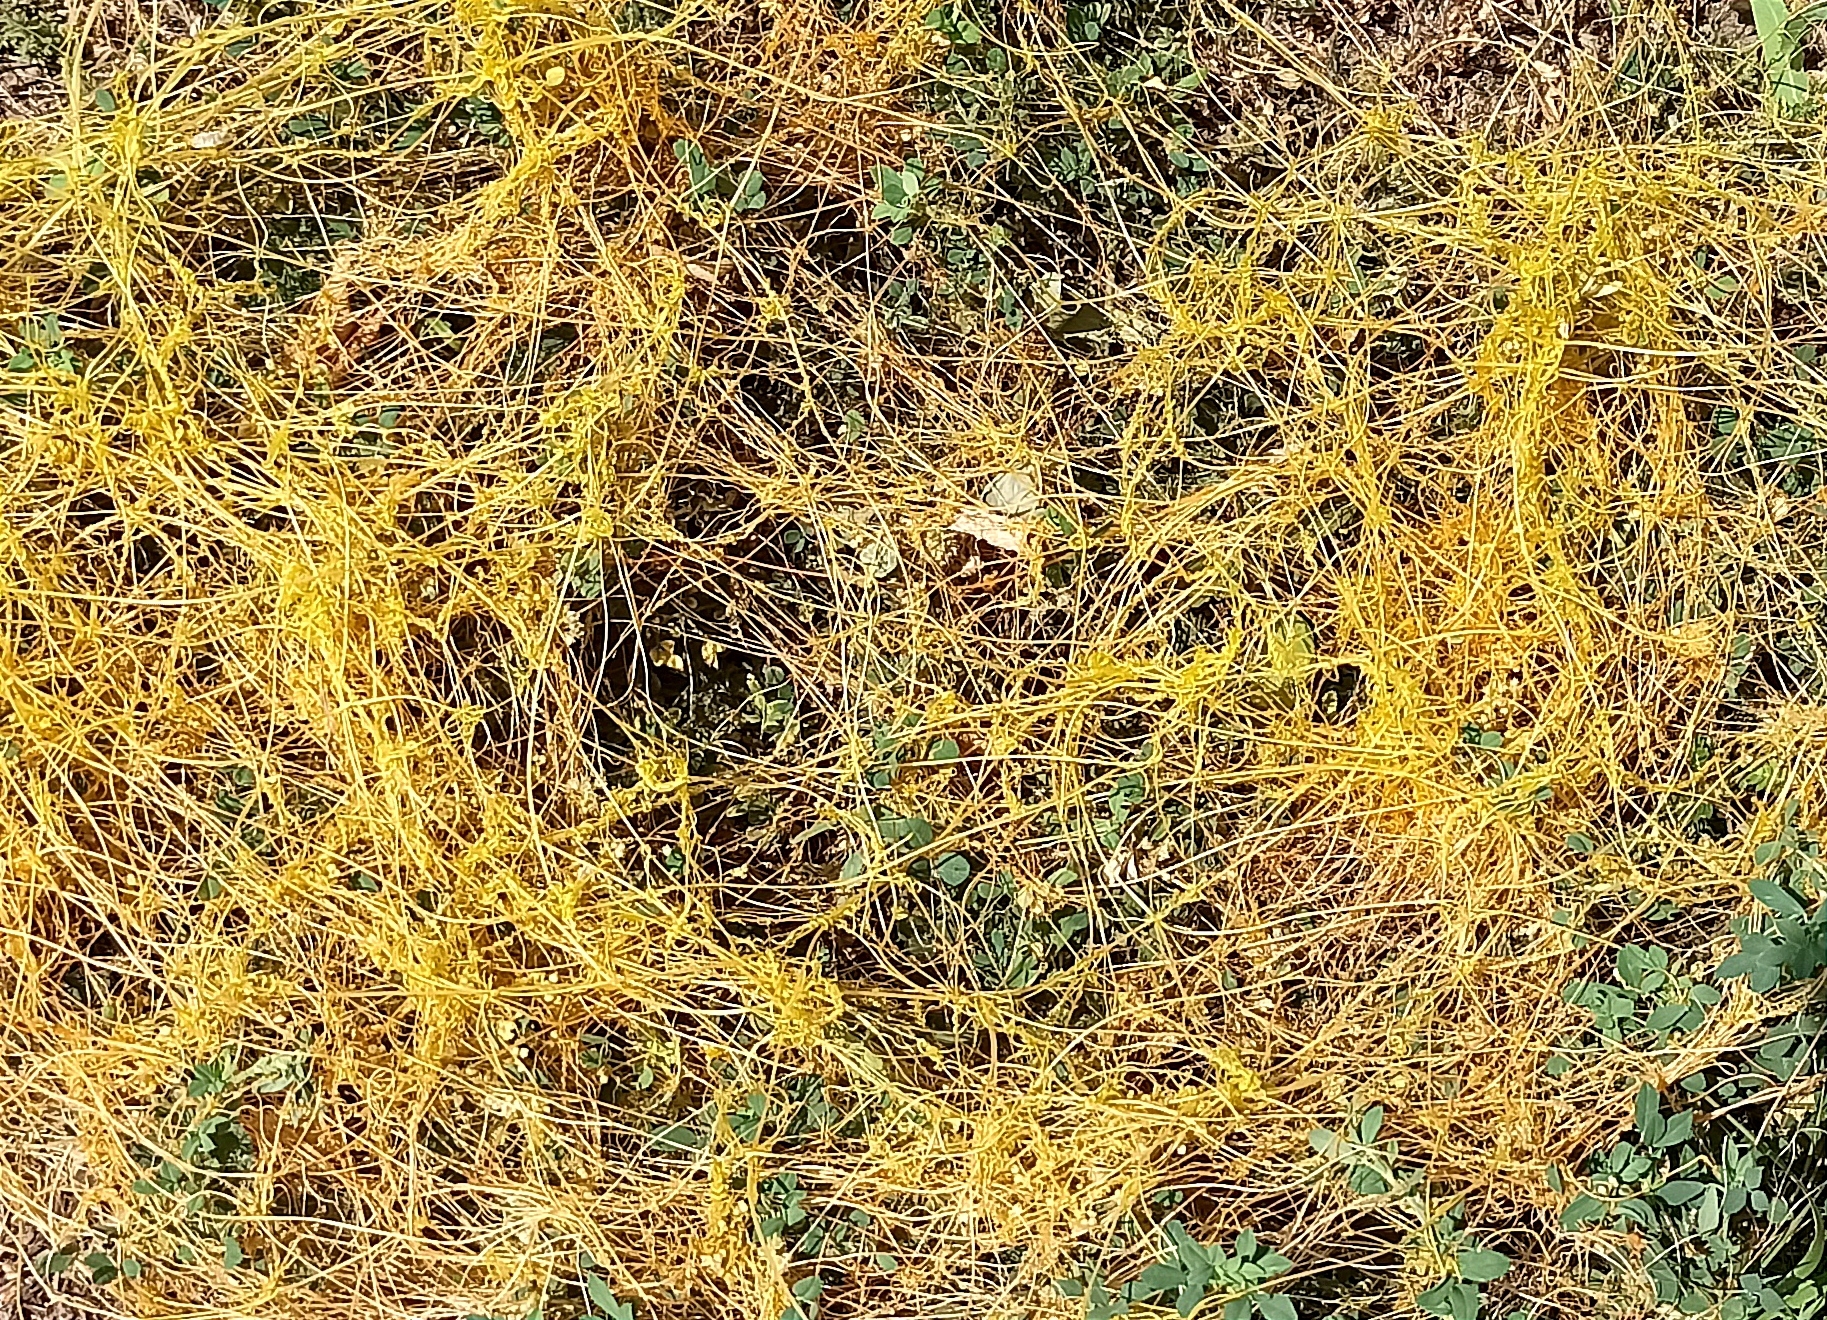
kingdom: Plantae
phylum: Tracheophyta
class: Magnoliopsida
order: Solanales
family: Convolvulaceae
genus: Cuscuta
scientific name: Cuscuta campestris
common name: Yellow dodder
